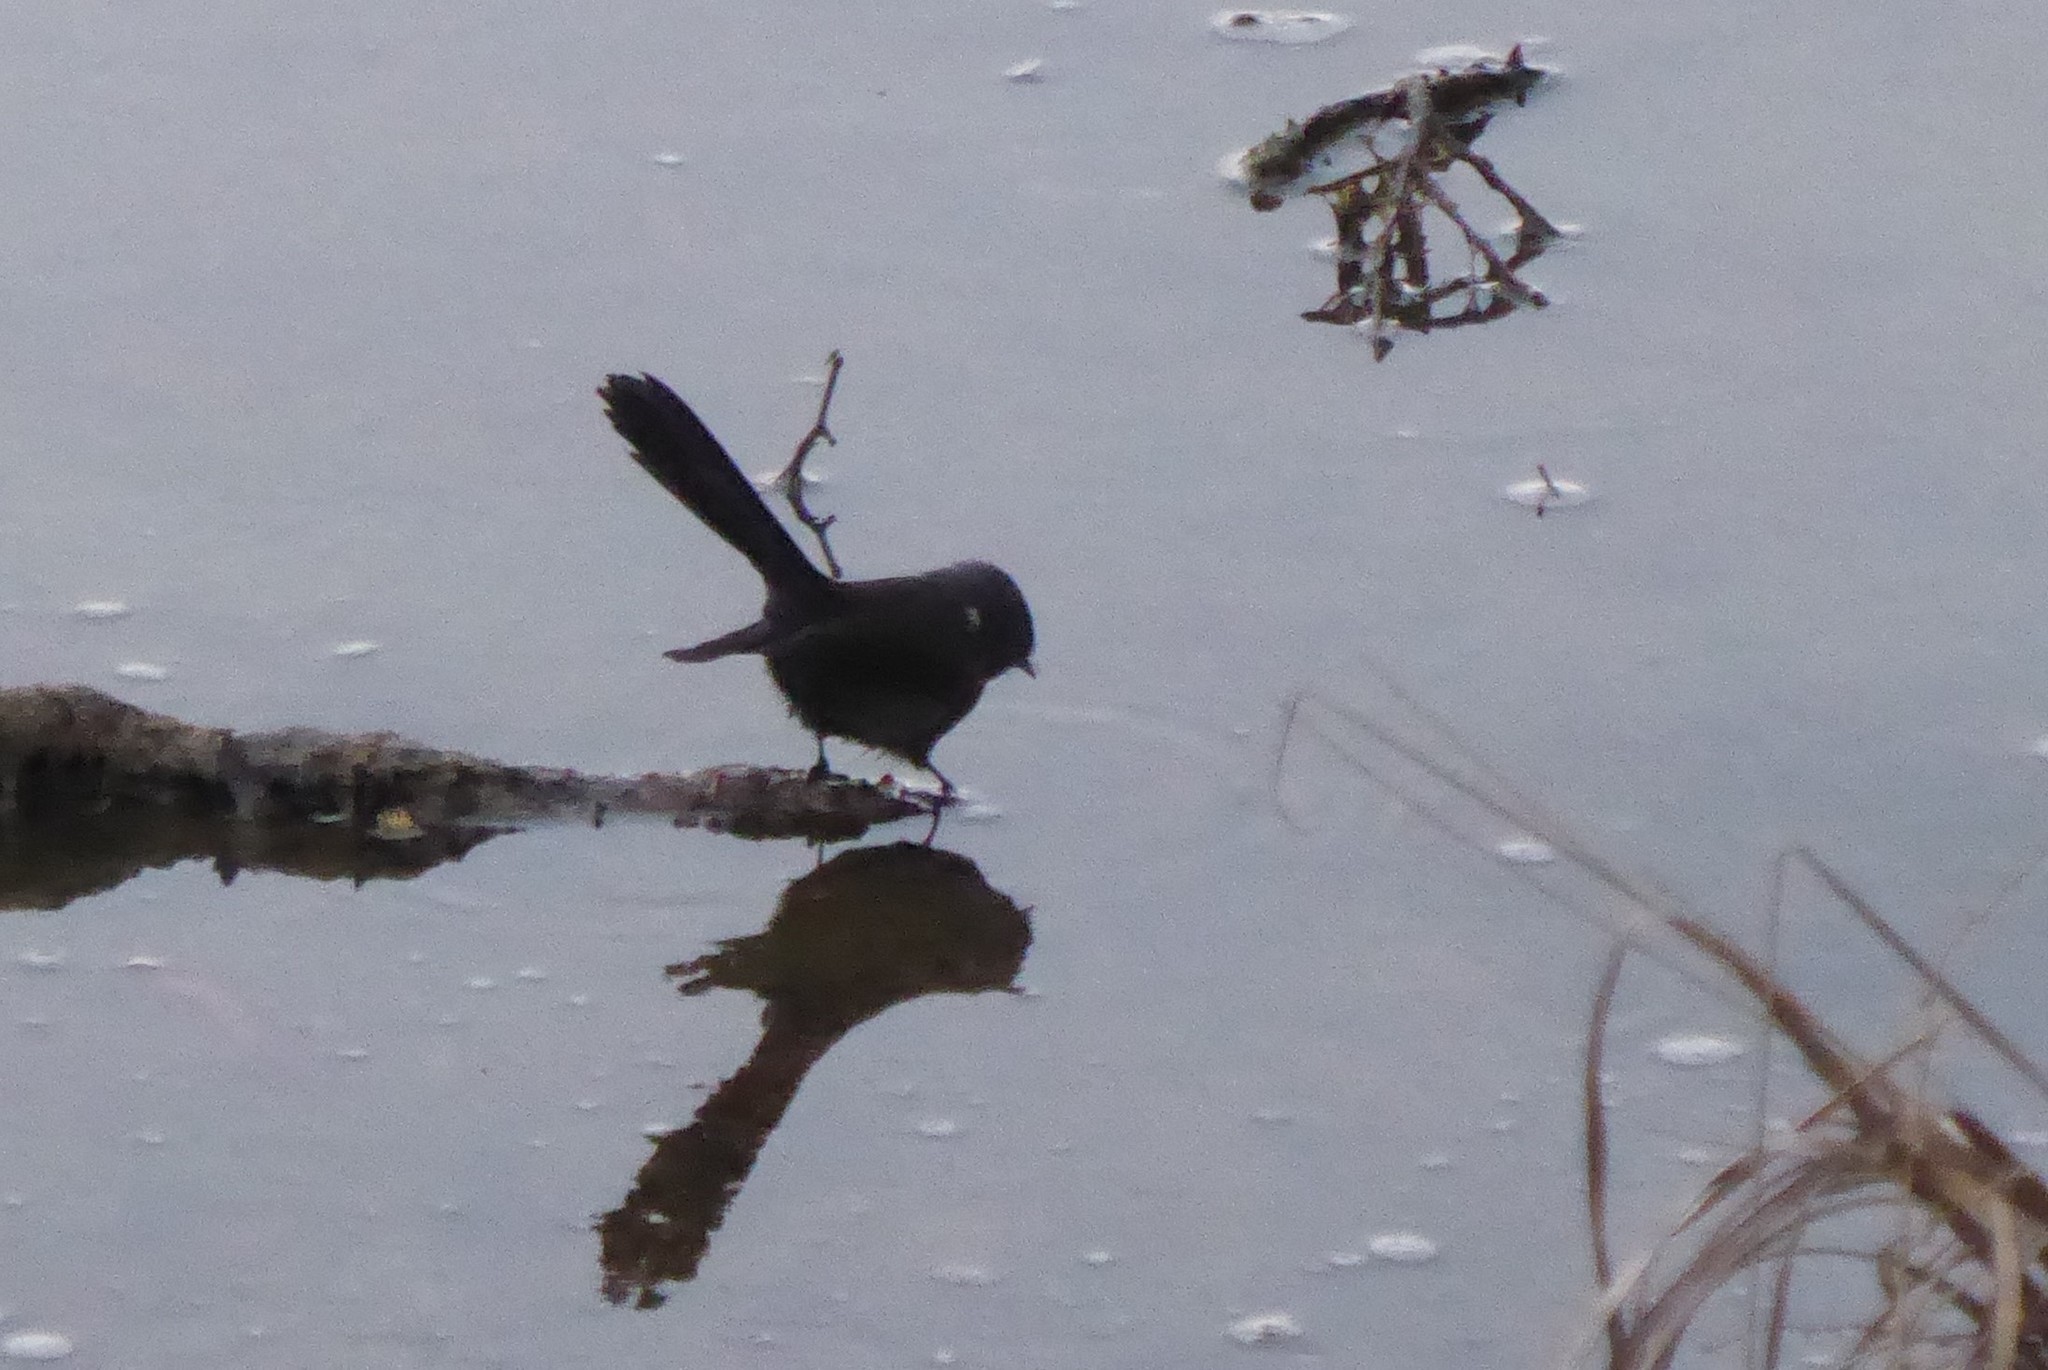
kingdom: Animalia
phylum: Chordata
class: Aves
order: Passeriformes
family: Rhipiduridae
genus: Rhipidura
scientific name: Rhipidura fuliginosa
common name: New zealand fantail
